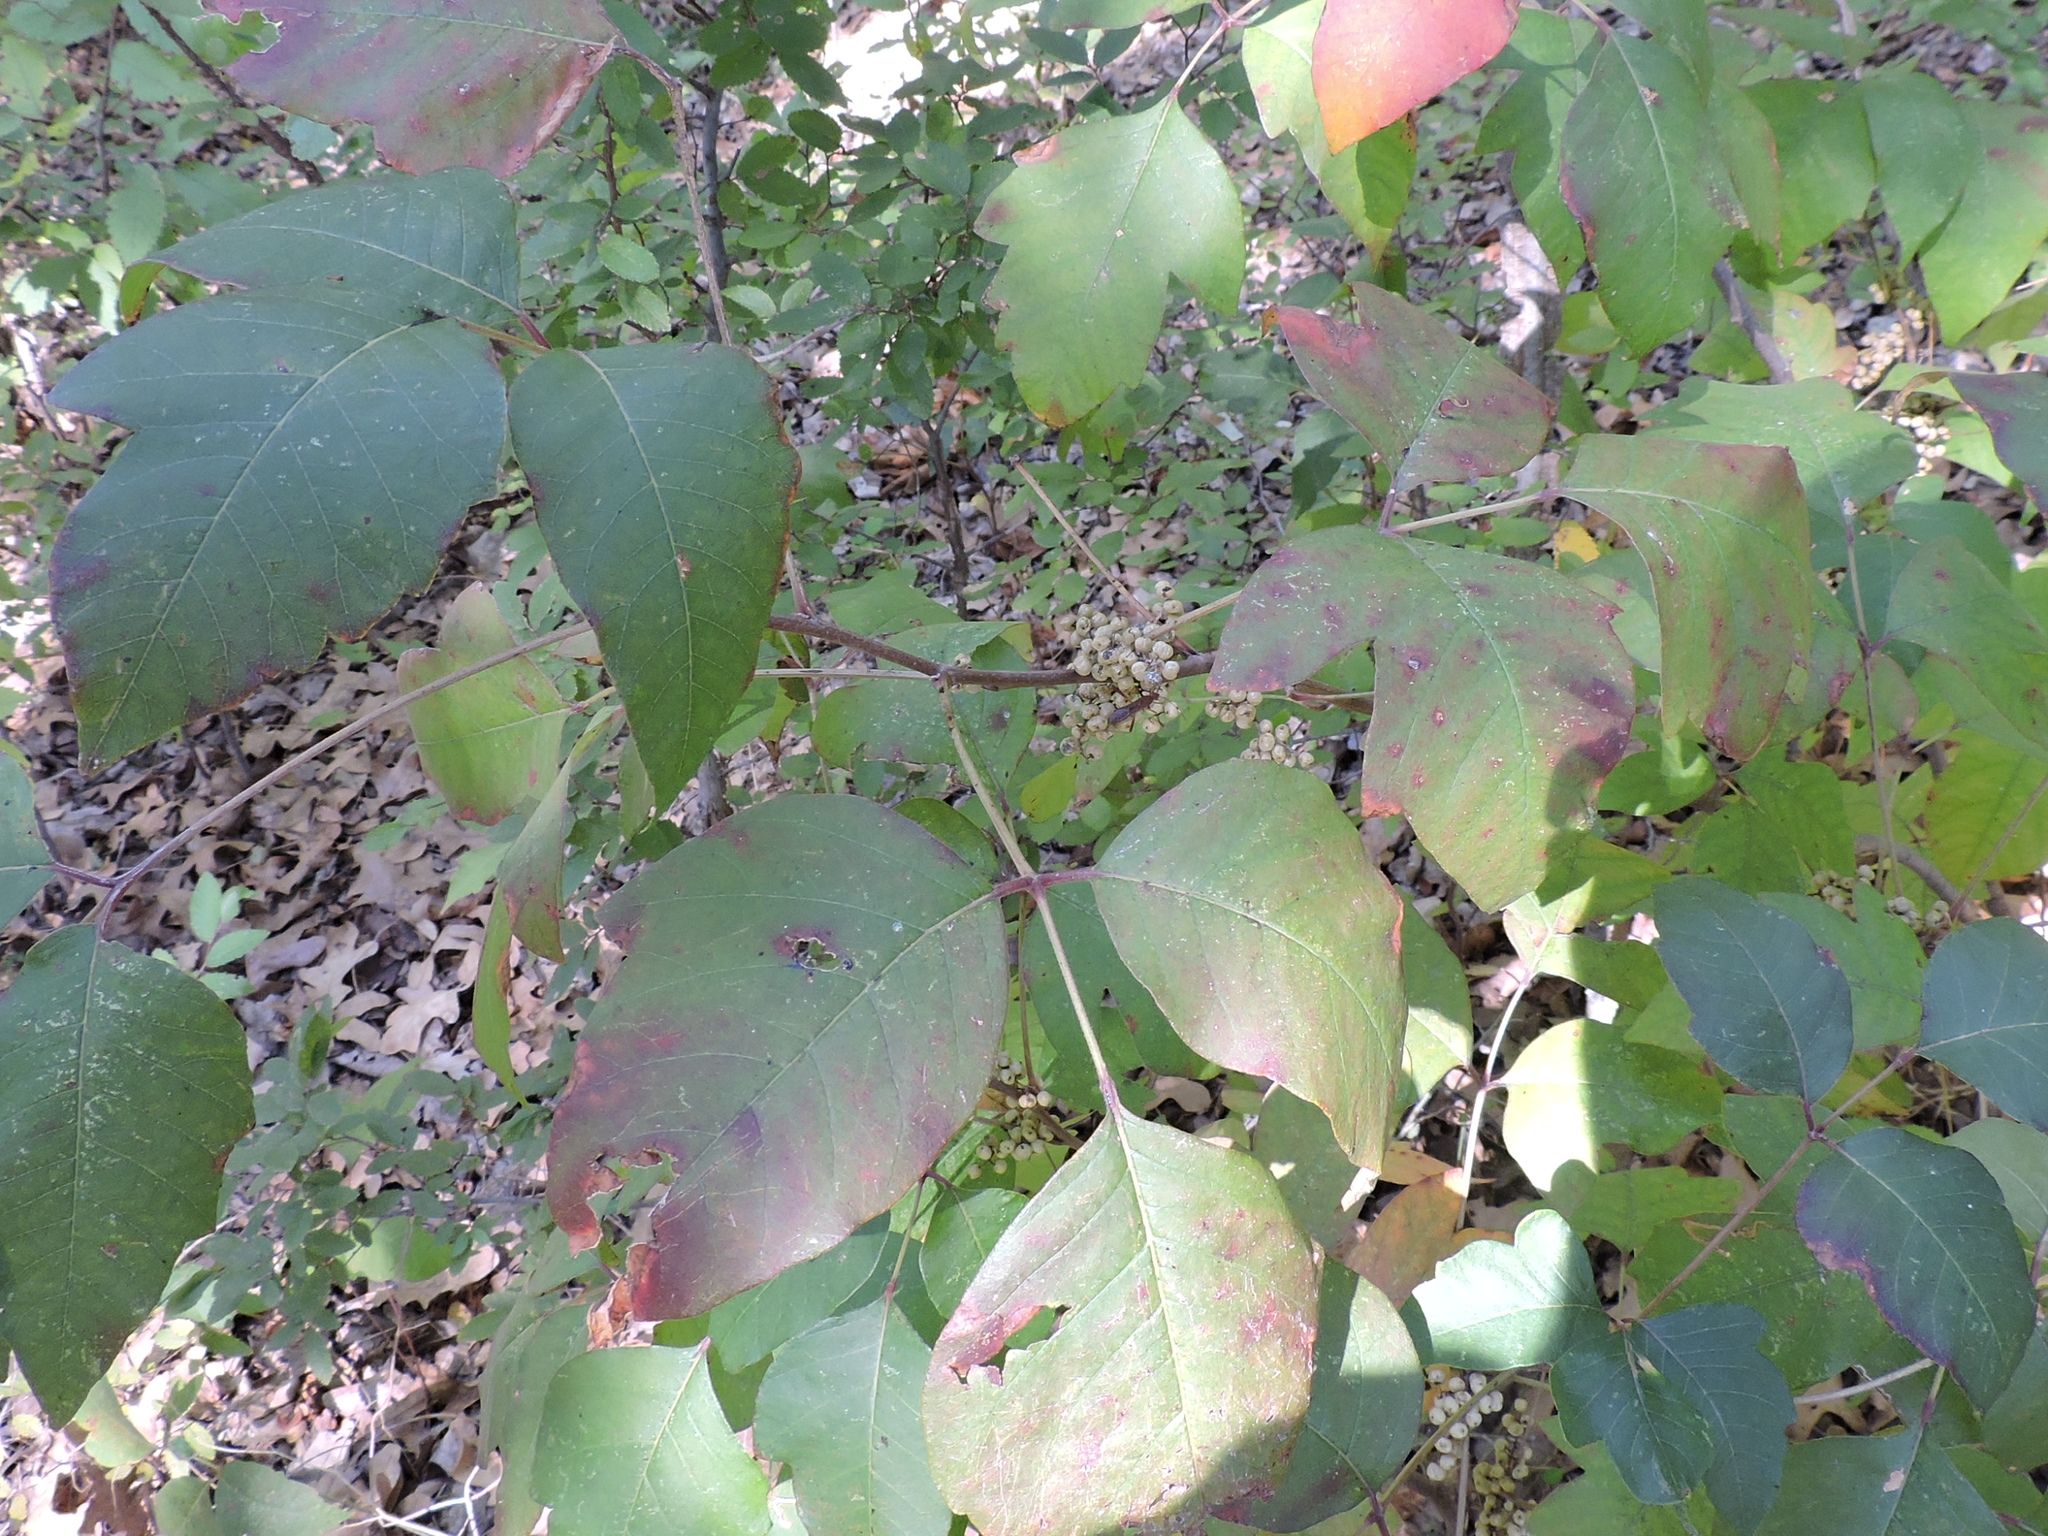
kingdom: Plantae
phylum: Tracheophyta
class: Magnoliopsida
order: Sapindales
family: Anacardiaceae
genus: Toxicodendron
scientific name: Toxicodendron radicans
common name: Poison ivy
